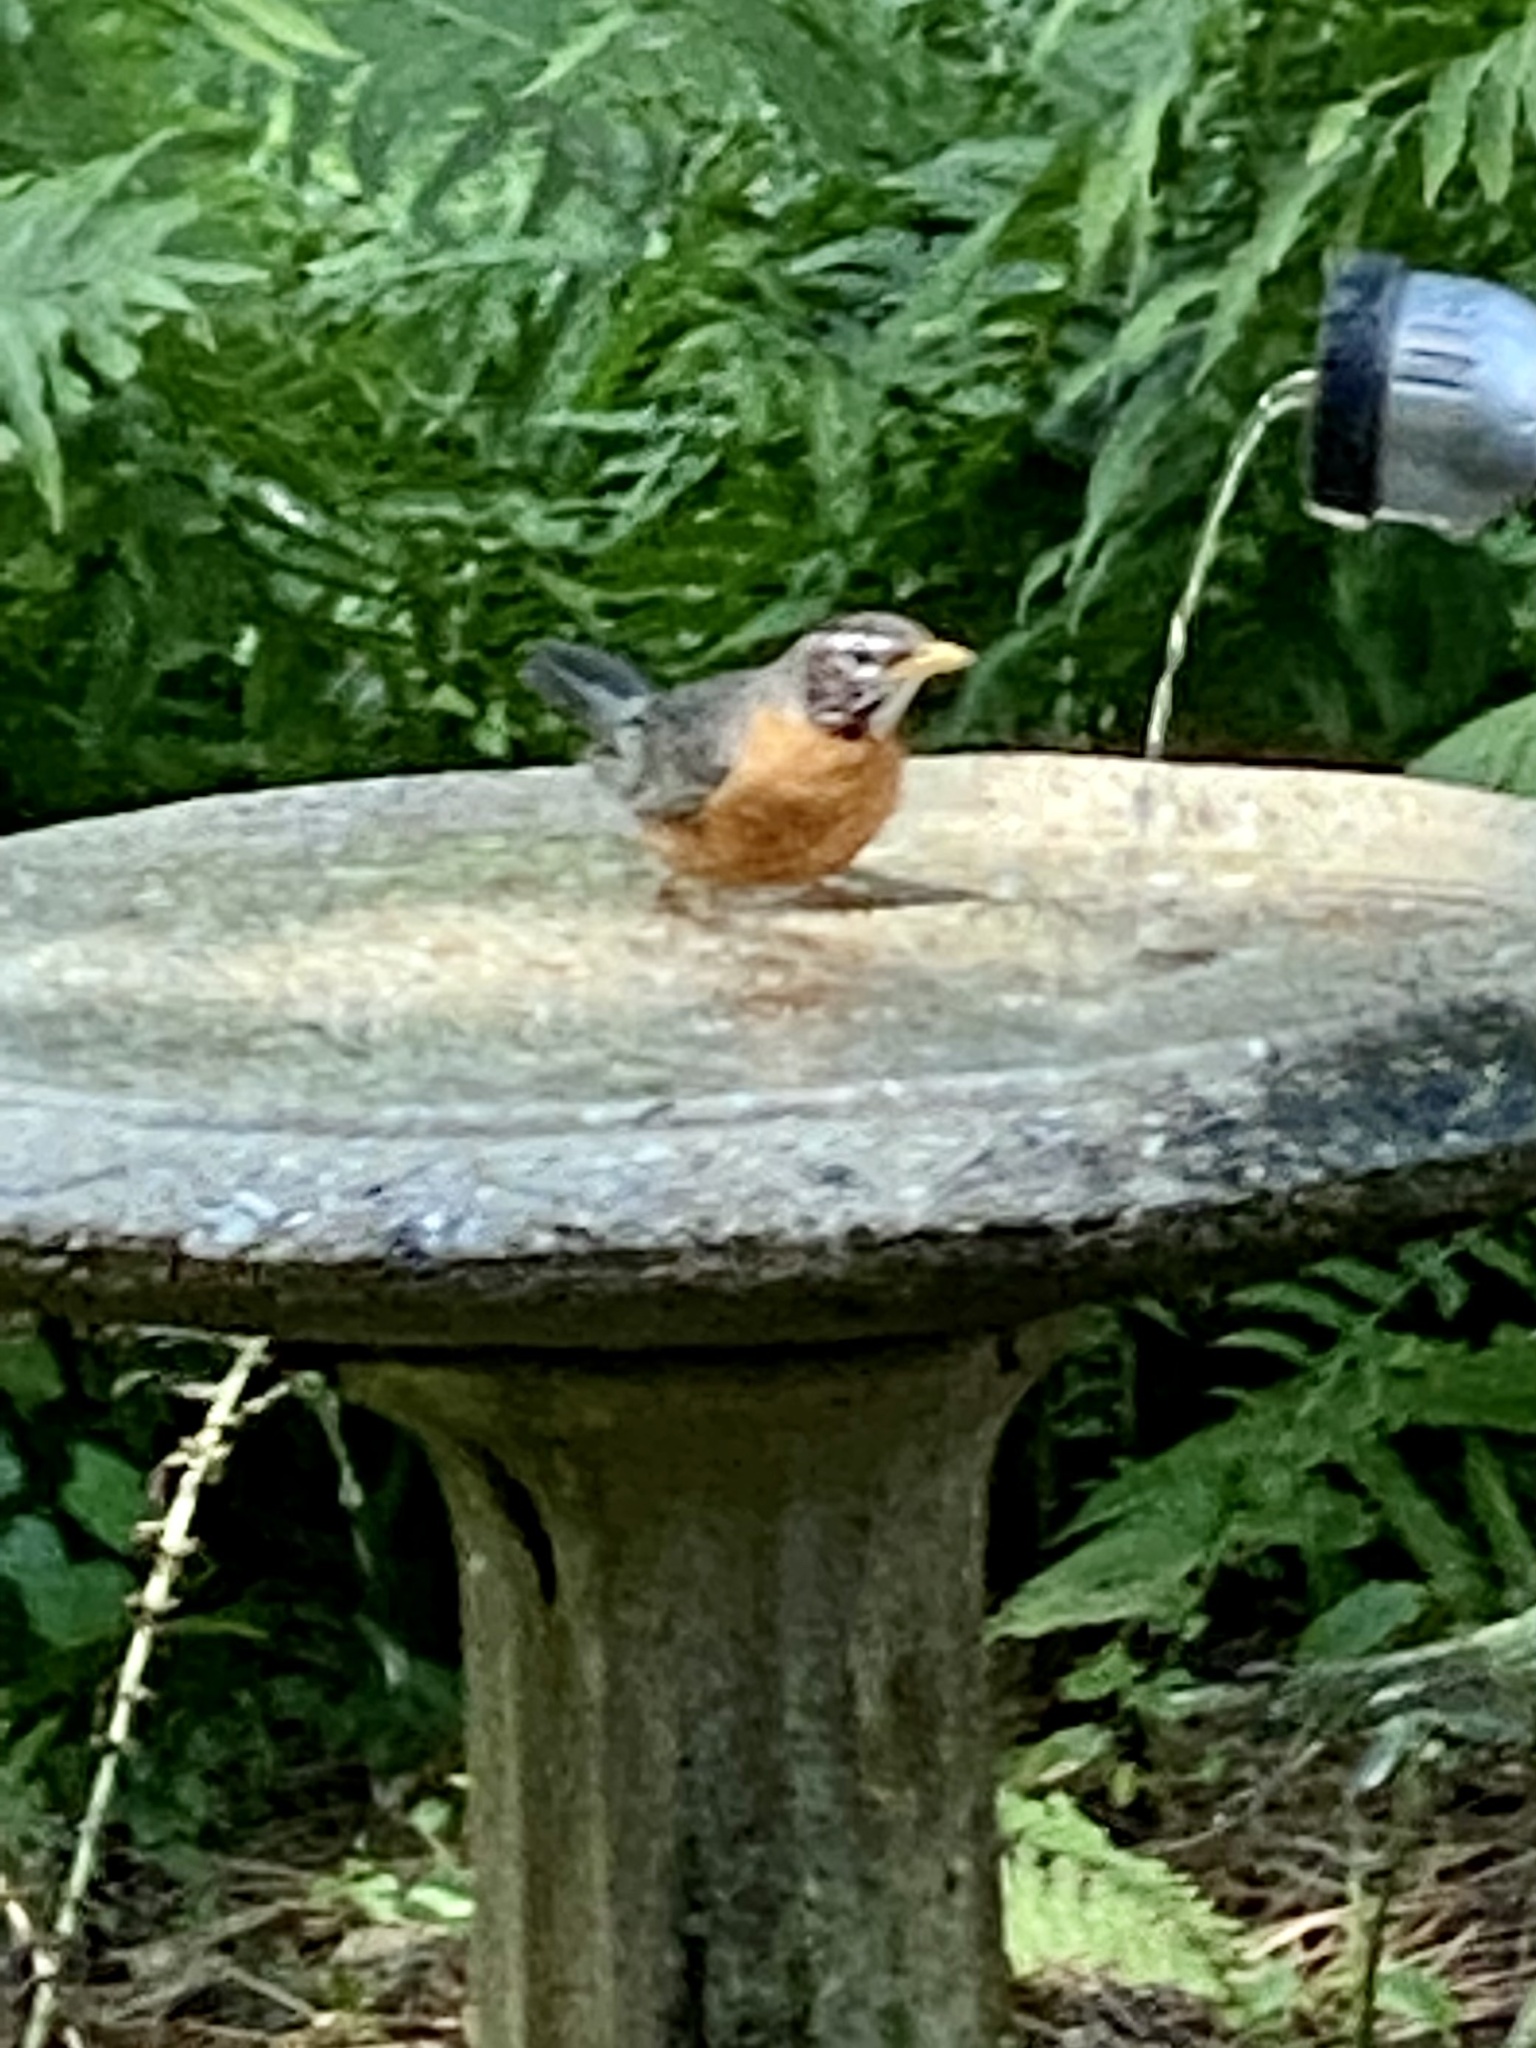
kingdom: Animalia
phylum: Chordata
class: Aves
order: Passeriformes
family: Turdidae
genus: Turdus
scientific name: Turdus migratorius
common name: American robin
